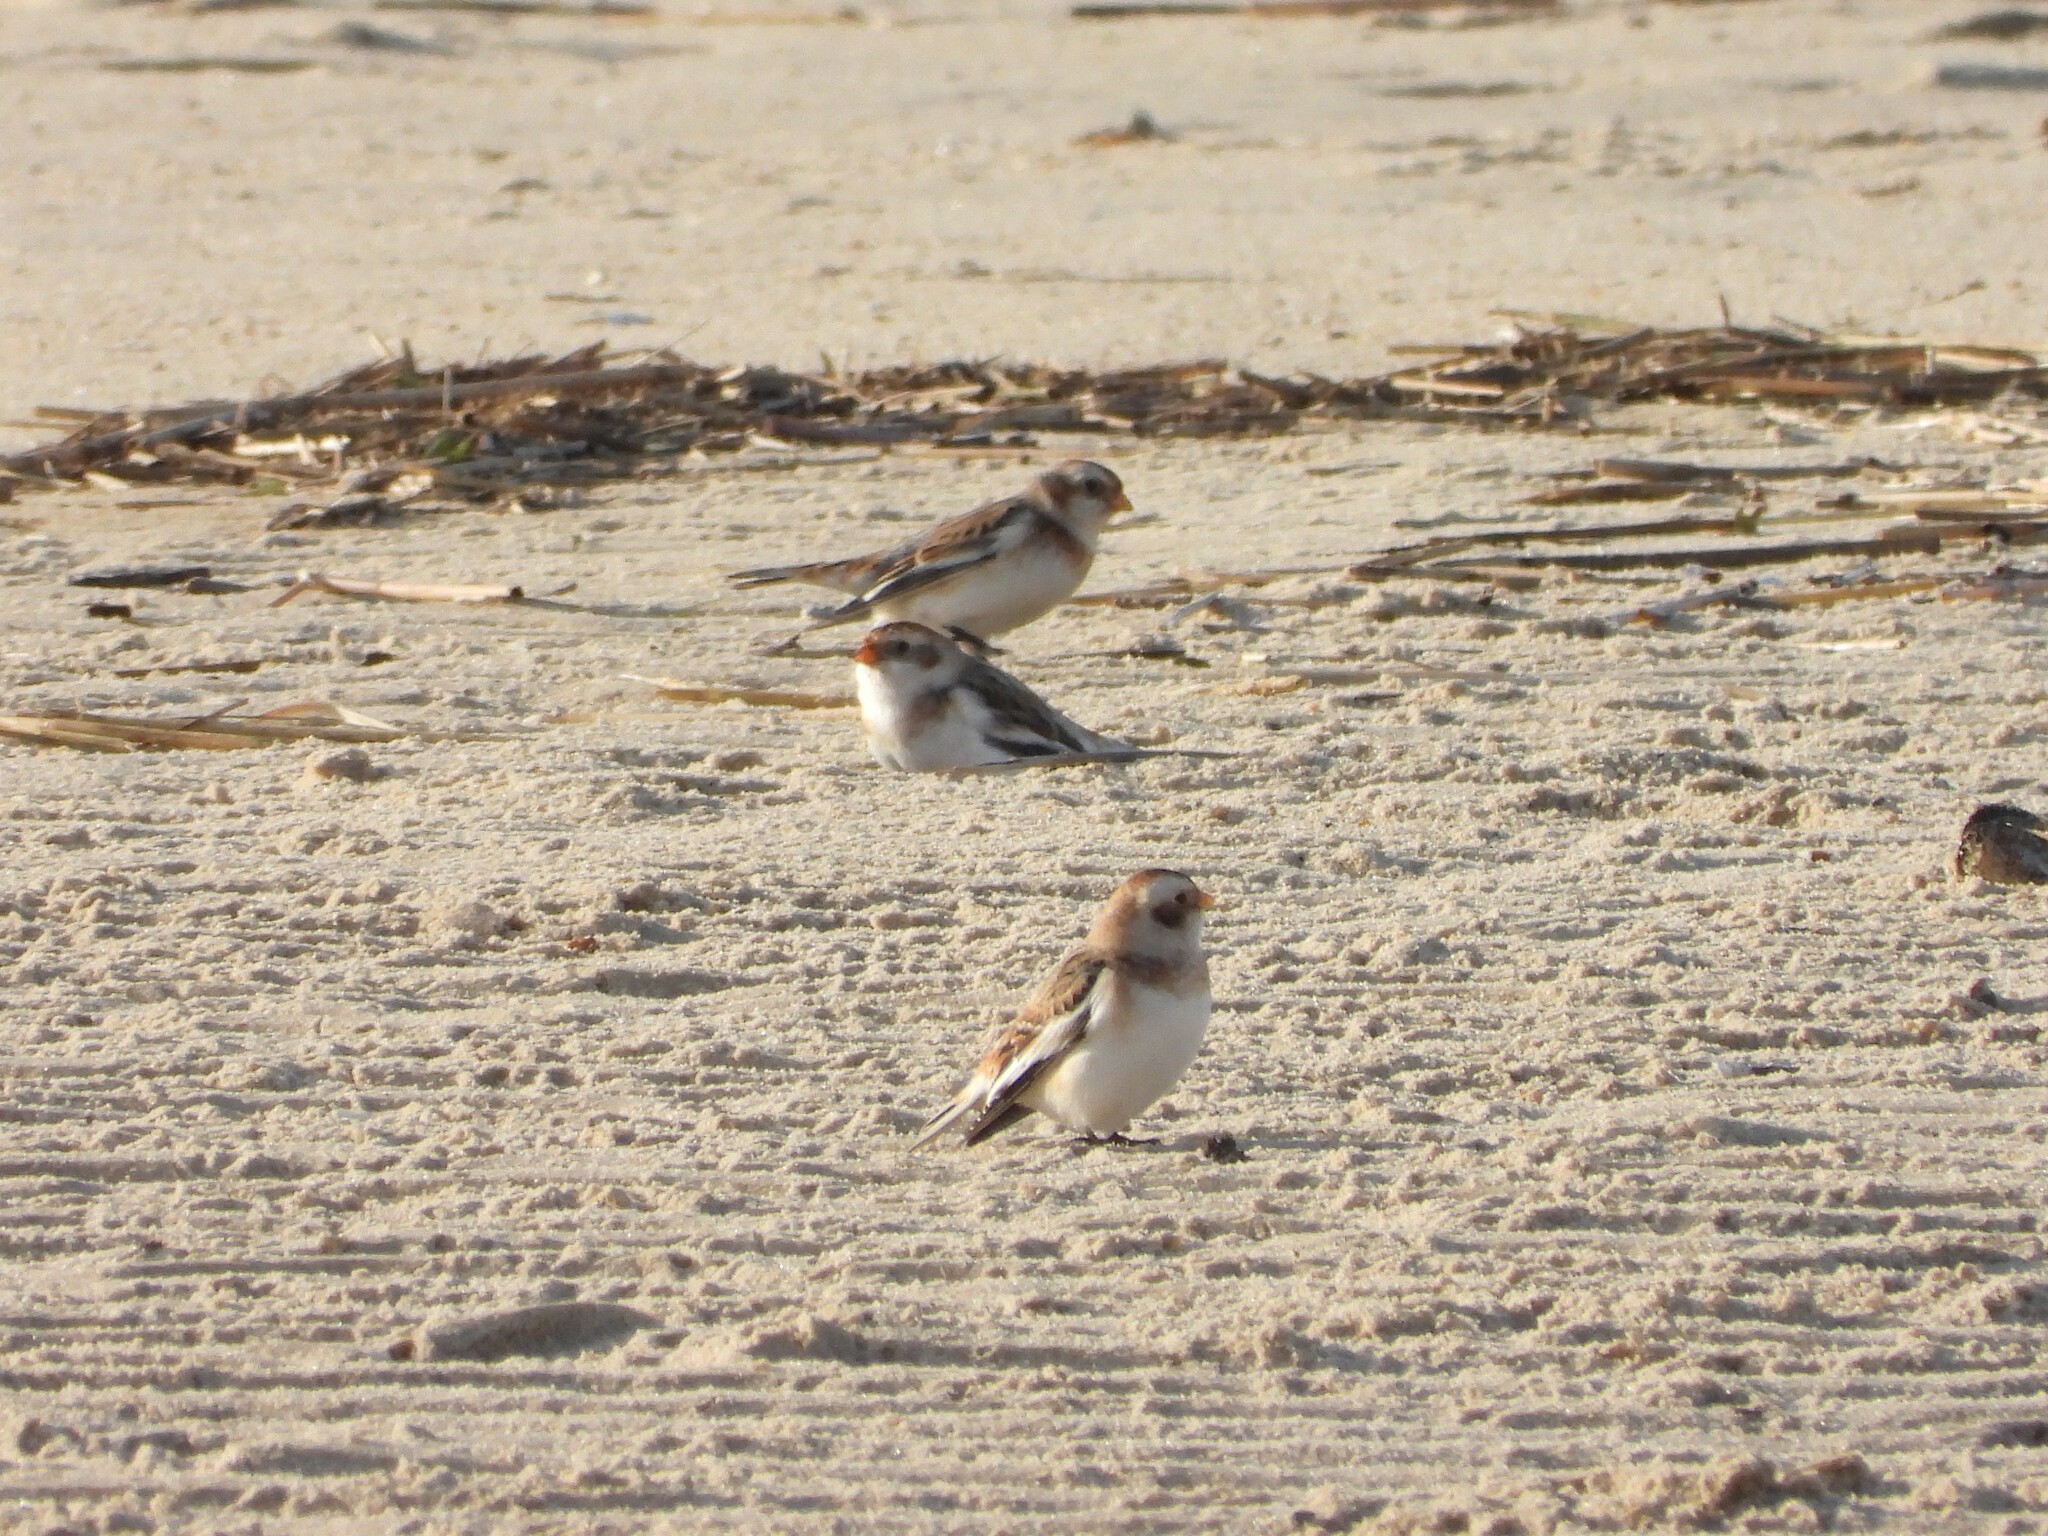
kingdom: Animalia
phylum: Chordata
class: Aves
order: Passeriformes
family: Calcariidae
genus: Plectrophenax
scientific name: Plectrophenax nivalis
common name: Snow bunting
